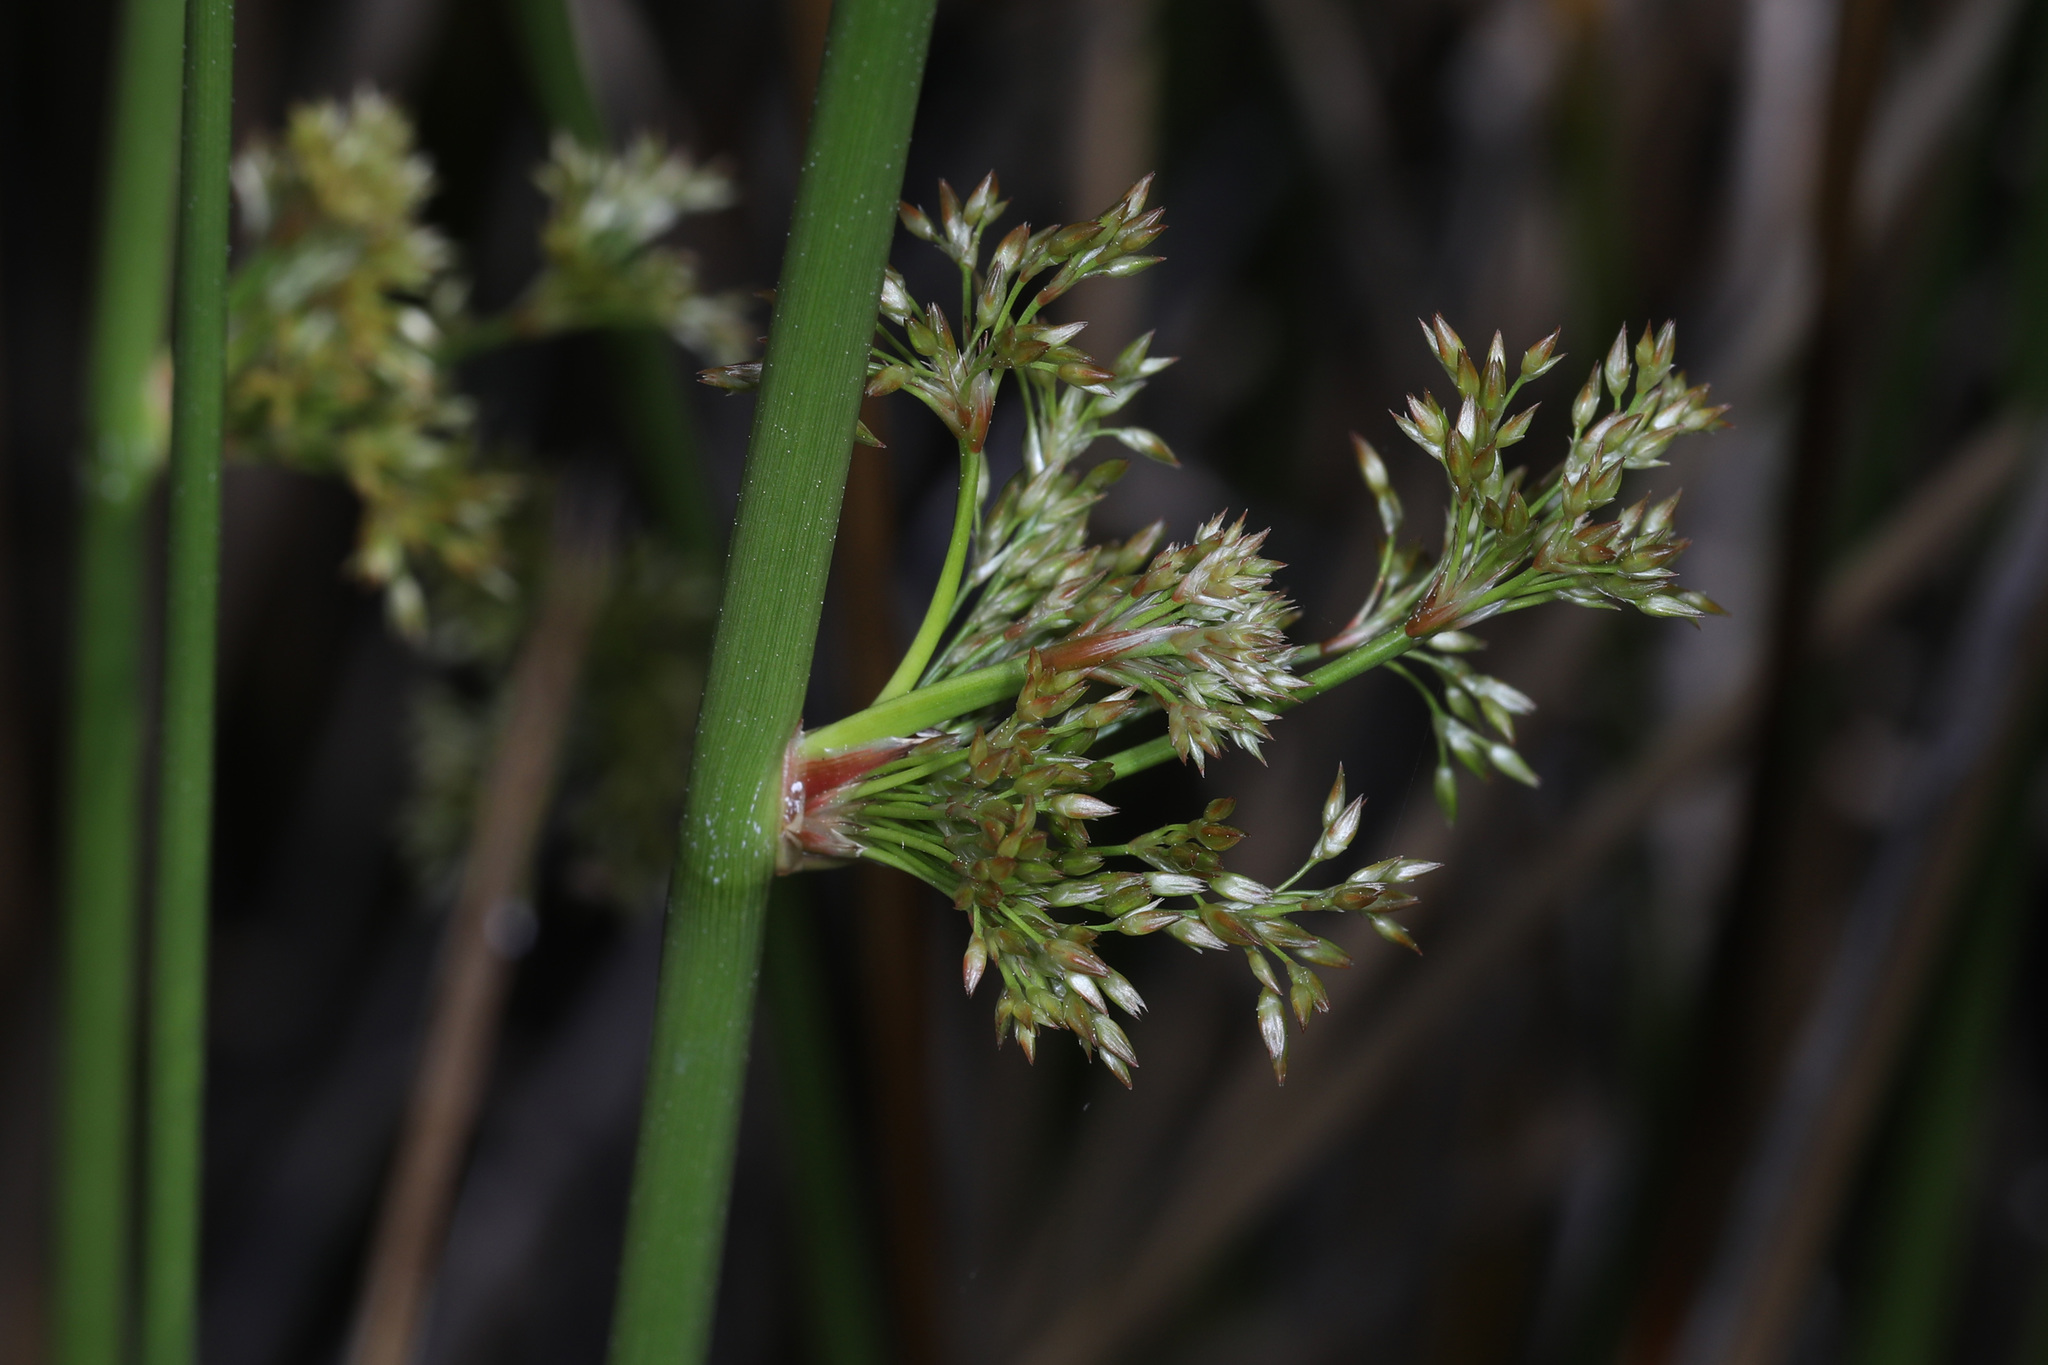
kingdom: Plantae
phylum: Tracheophyta
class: Liliopsida
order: Poales
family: Juncaceae
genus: Juncus
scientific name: Juncus effusus
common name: Soft rush
